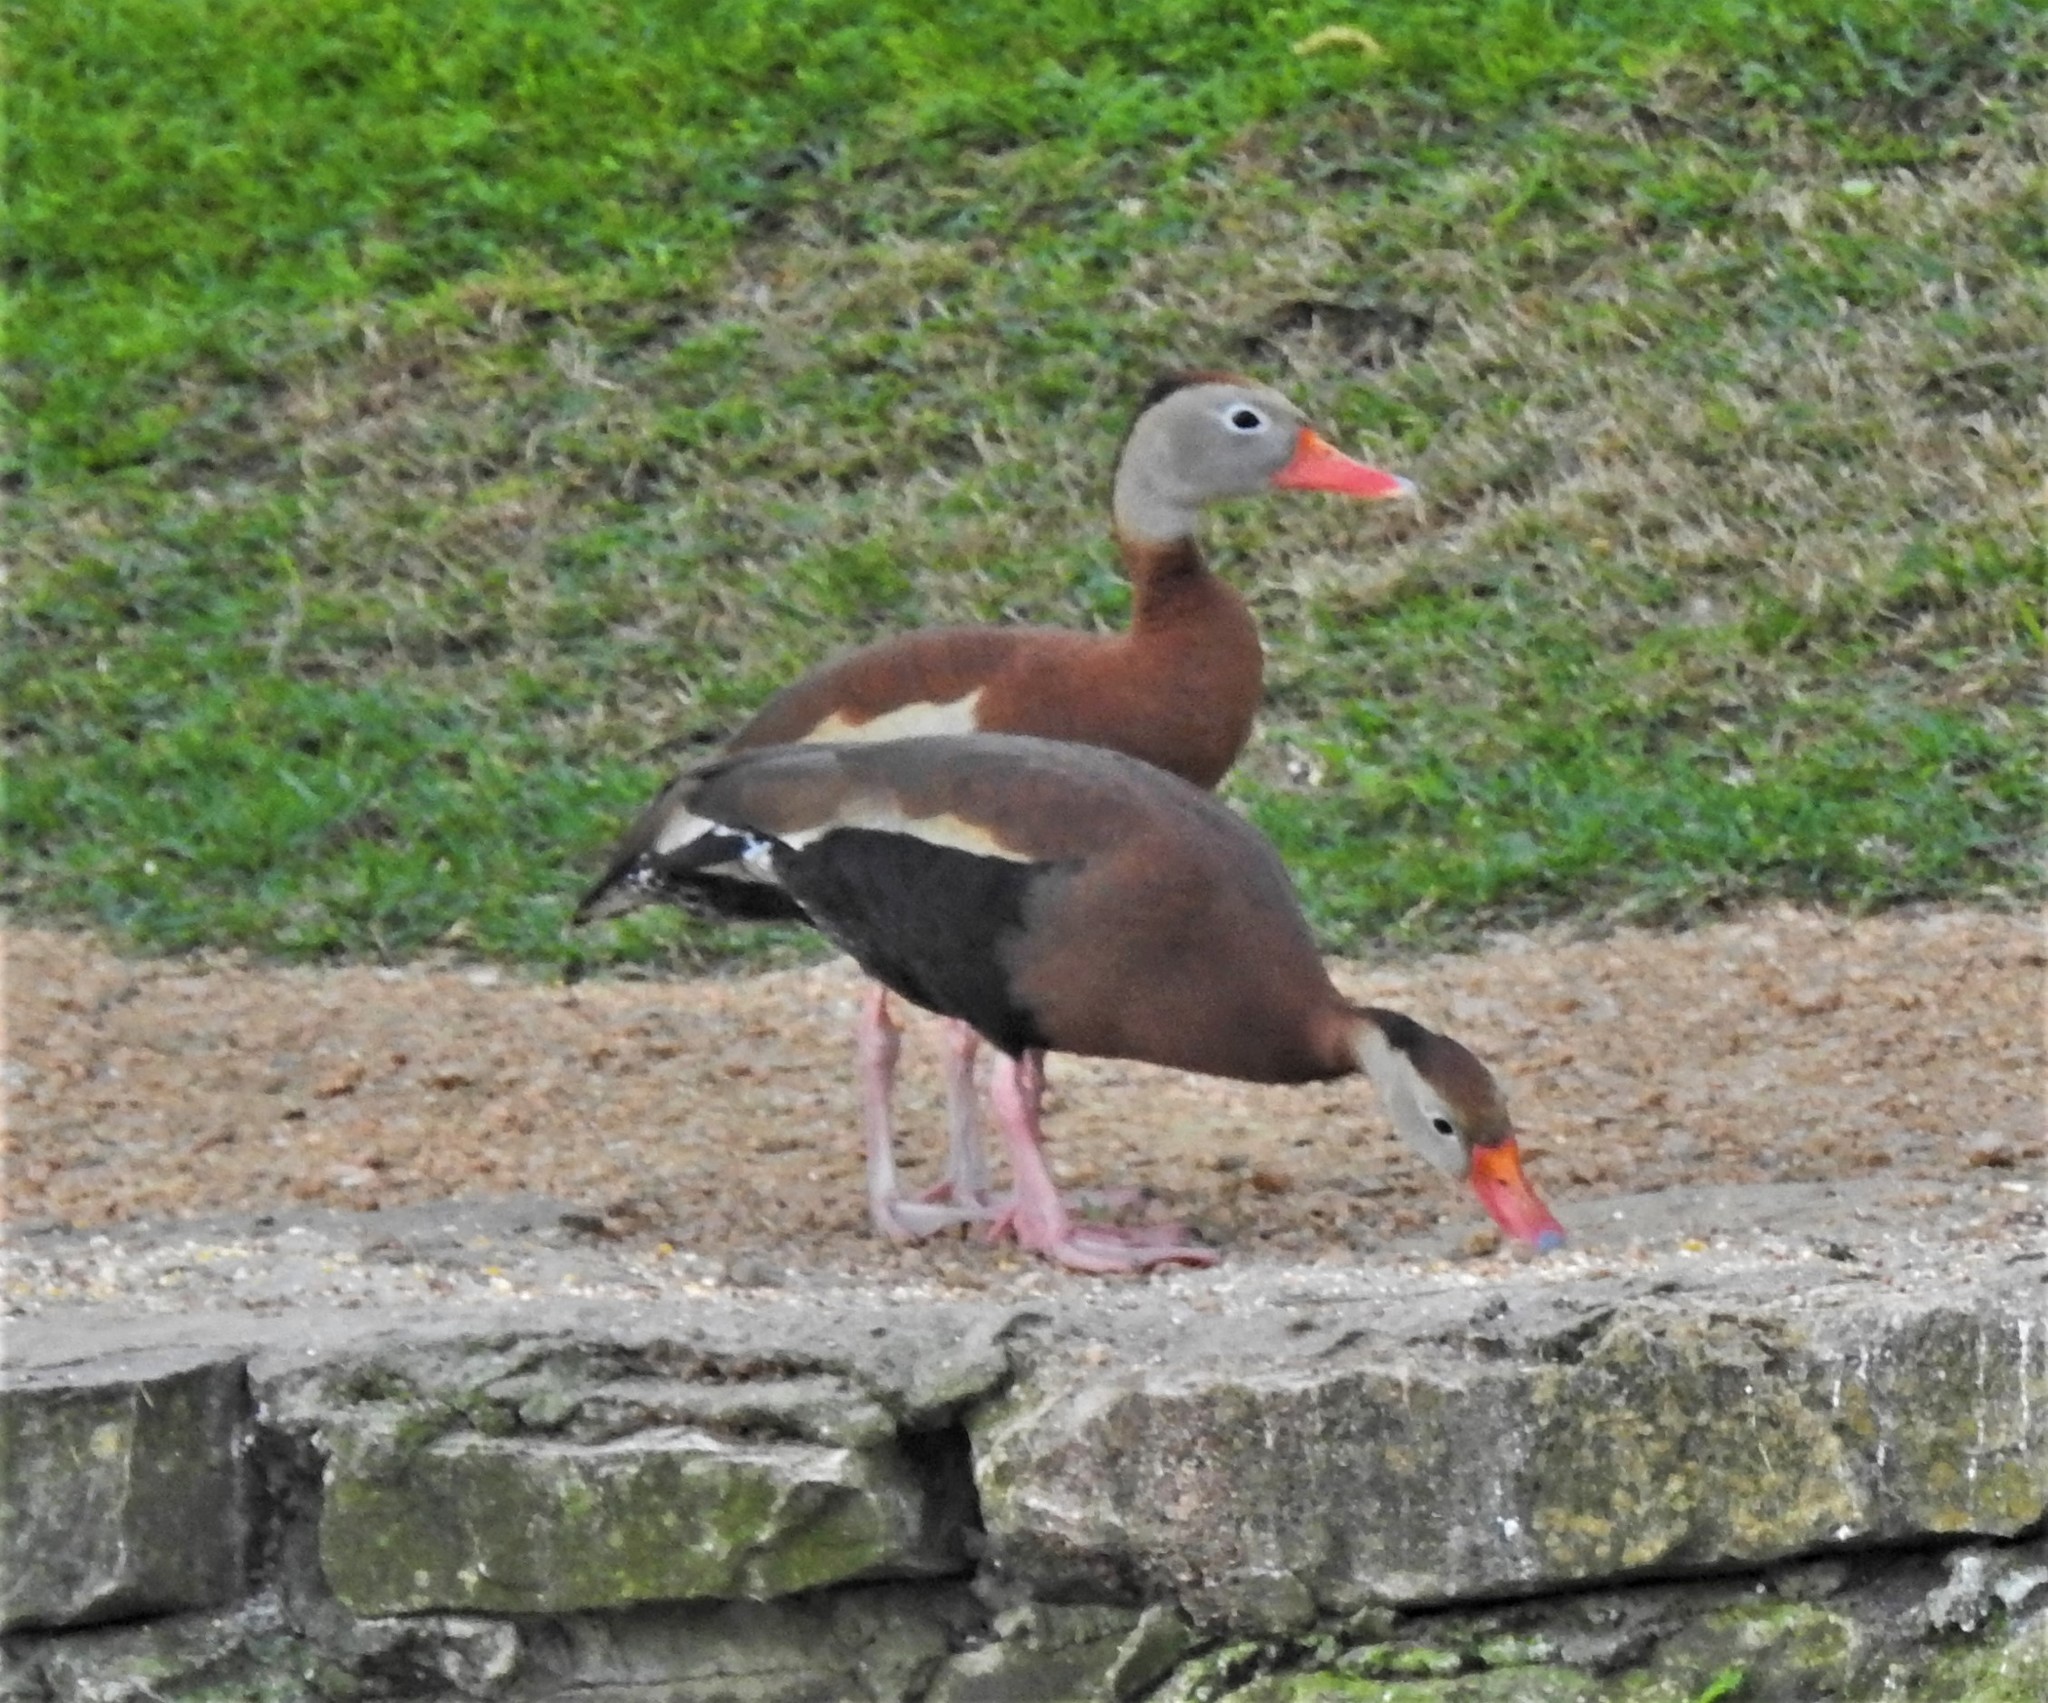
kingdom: Animalia
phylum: Chordata
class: Aves
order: Anseriformes
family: Anatidae
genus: Dendrocygna
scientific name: Dendrocygna autumnalis
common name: Black-bellied whistling duck
